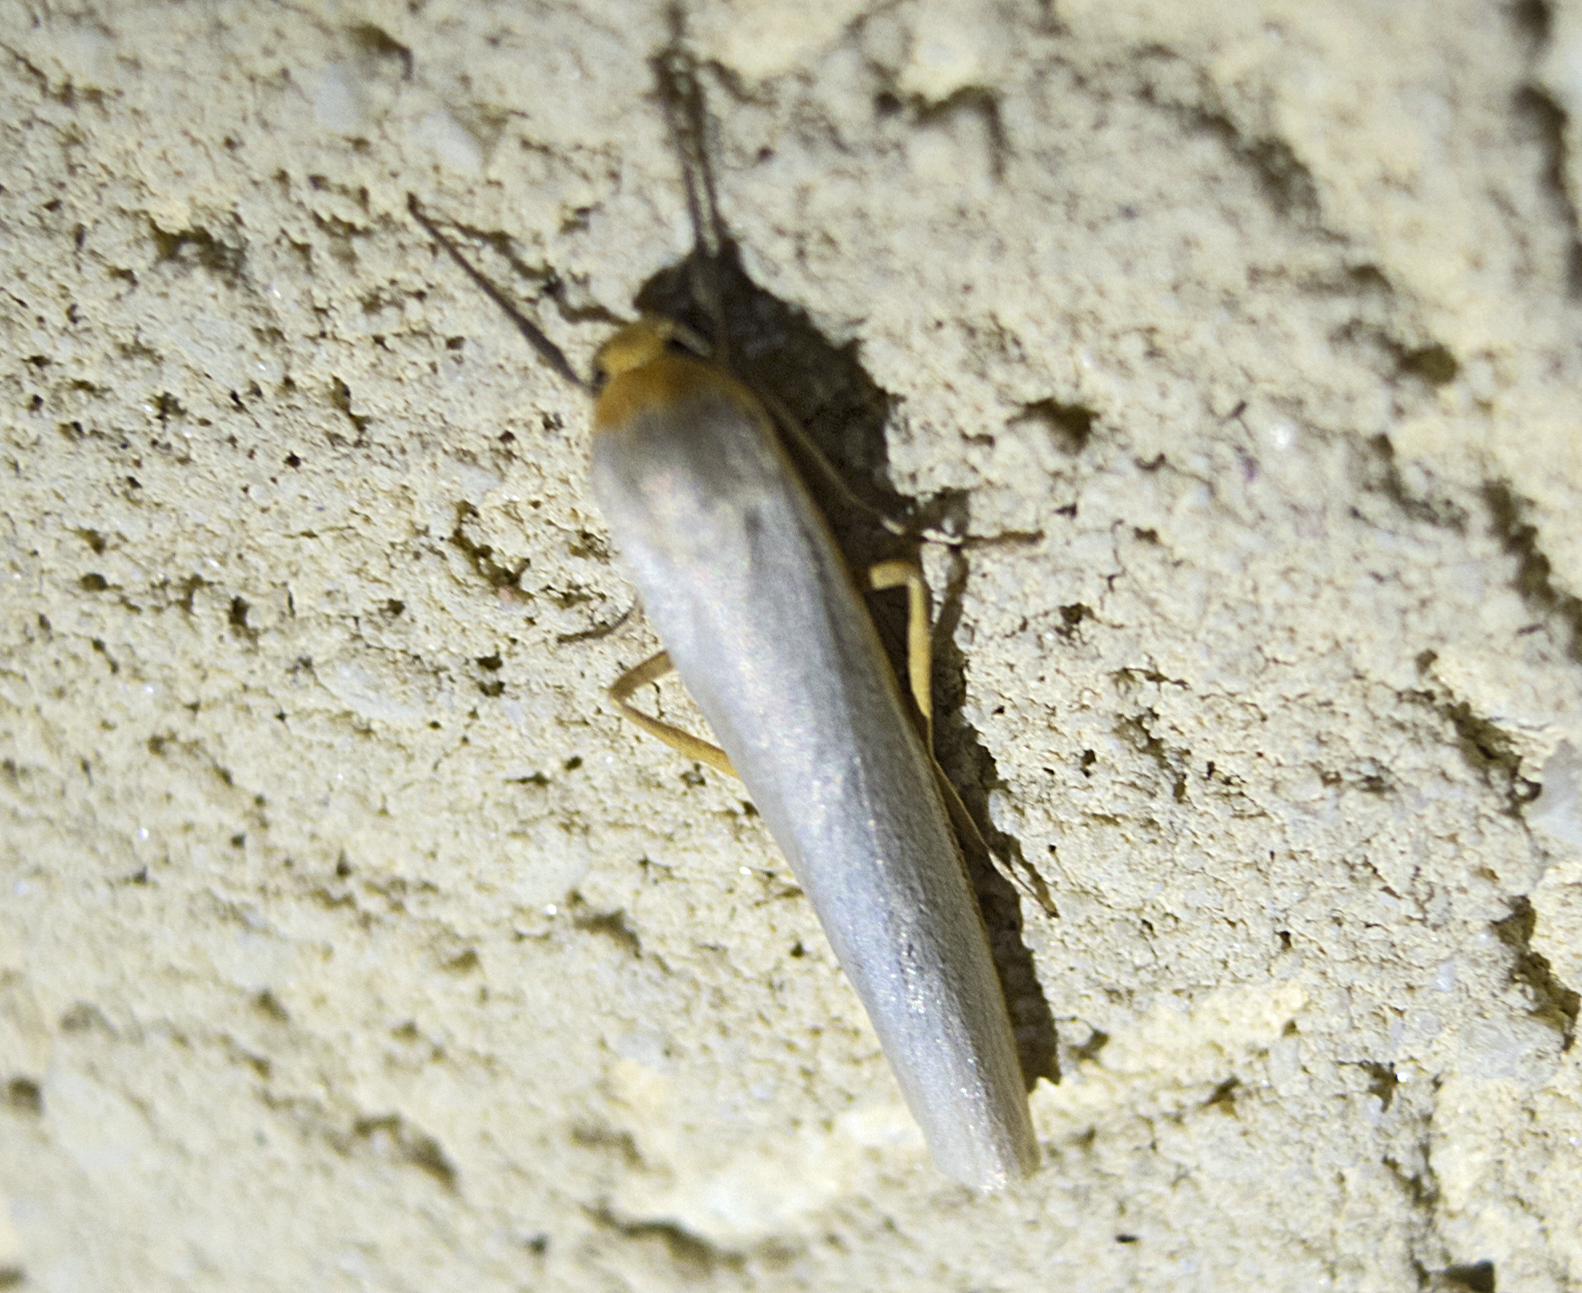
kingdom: Animalia
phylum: Arthropoda
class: Insecta
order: Lepidoptera
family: Erebidae
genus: Eilema
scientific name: Eilema caniola
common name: Hoary footman
